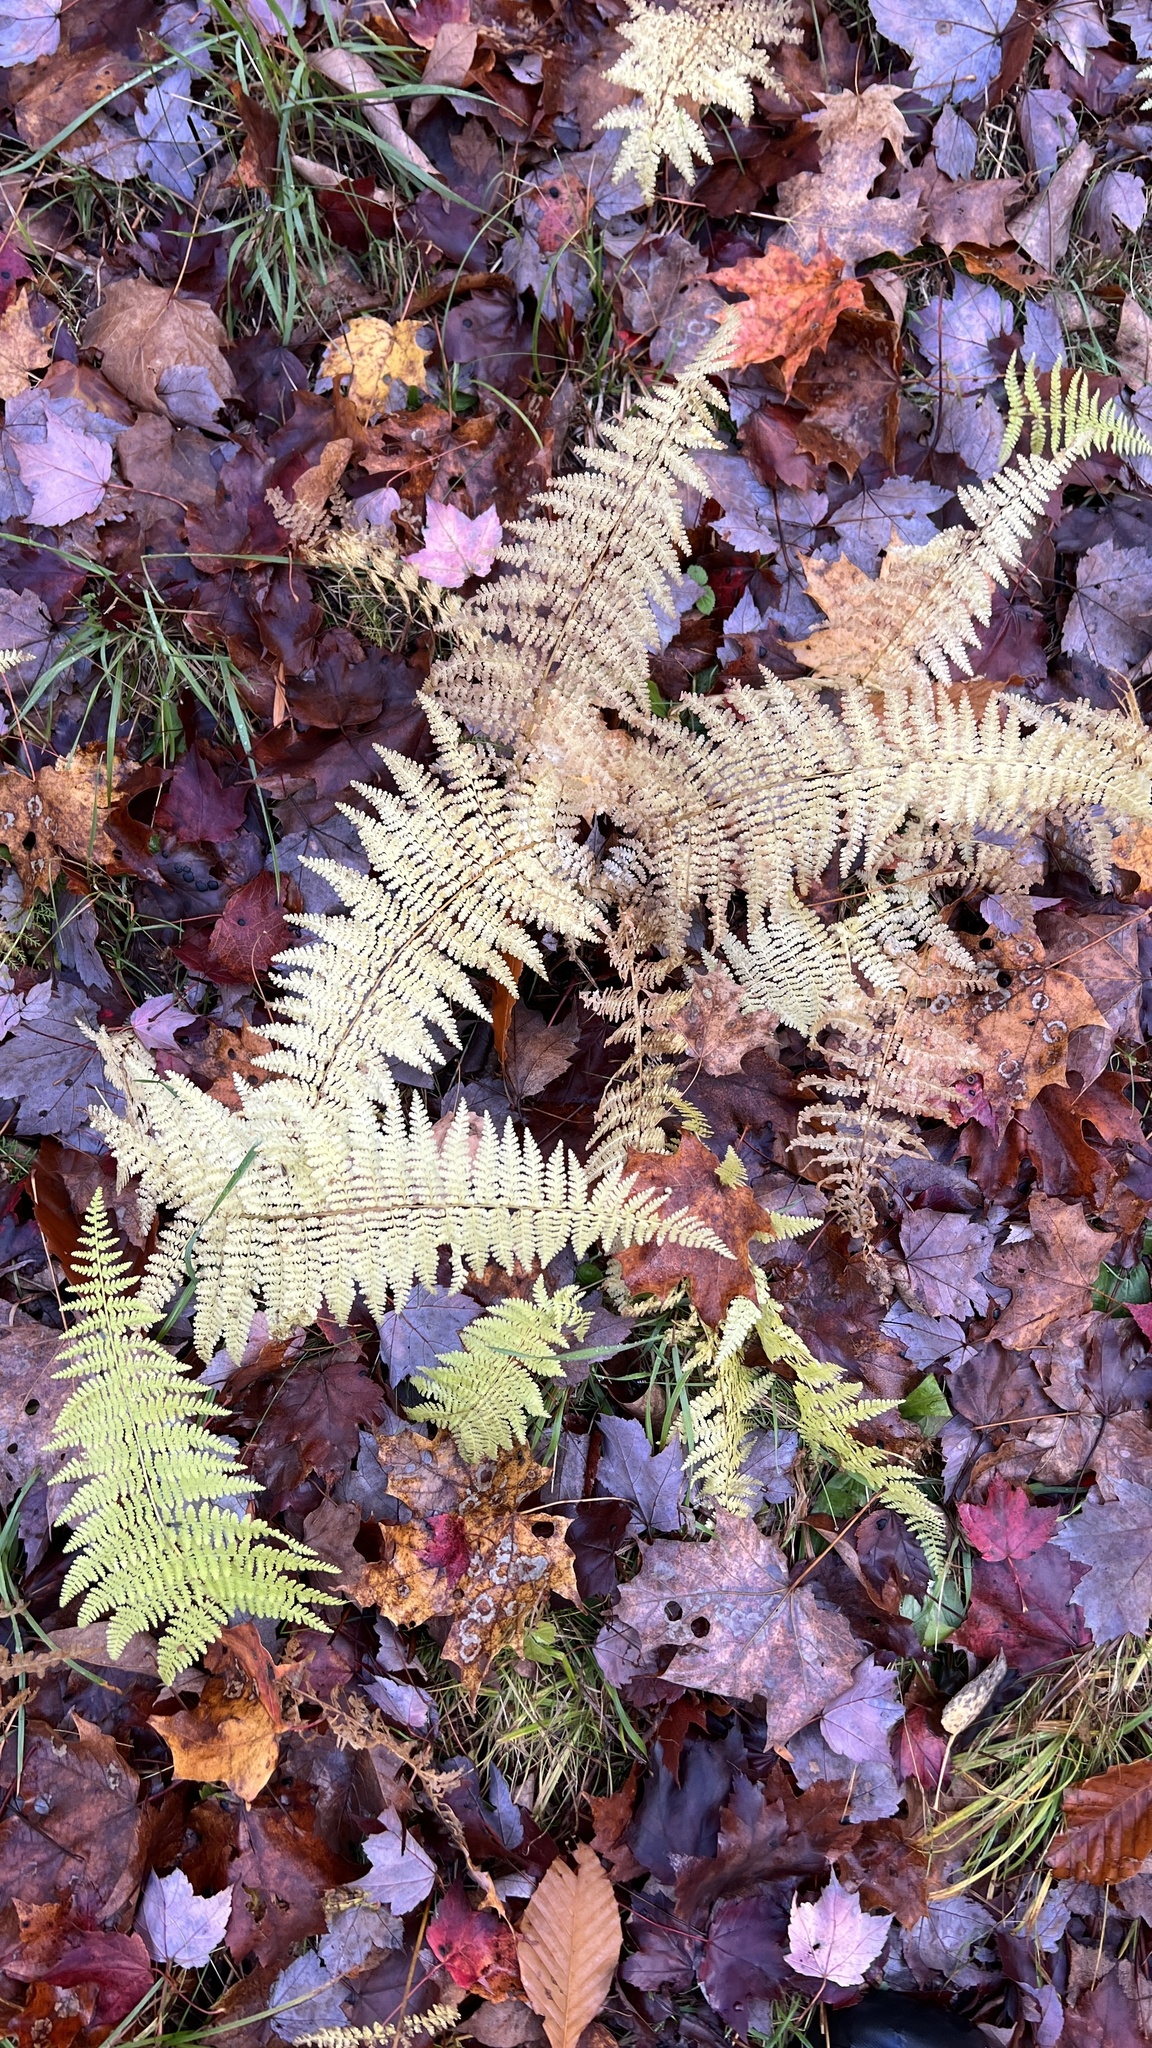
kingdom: Plantae
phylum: Tracheophyta
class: Polypodiopsida
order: Polypodiales
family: Dennstaedtiaceae
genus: Sitobolium
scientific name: Sitobolium punctilobum
